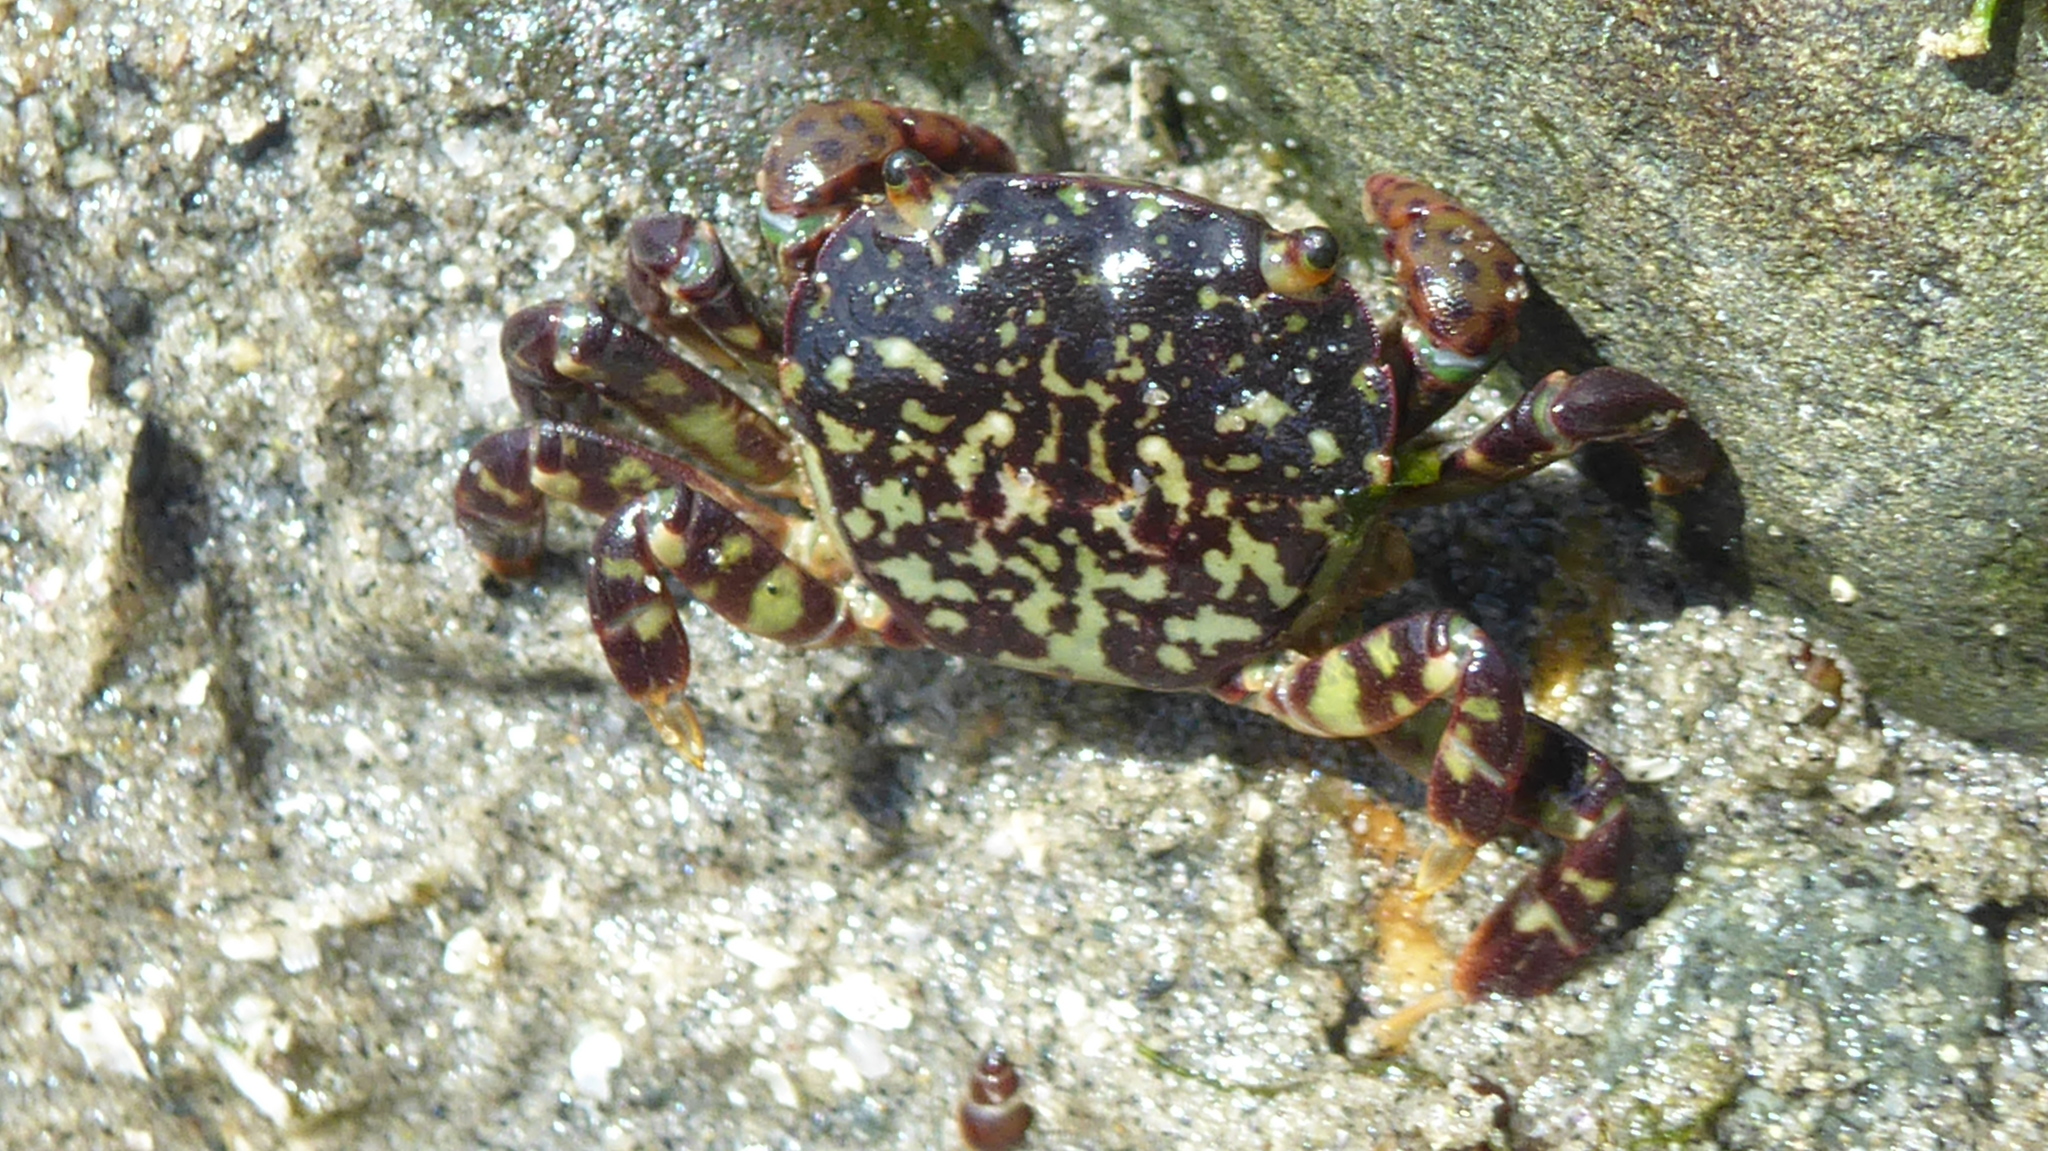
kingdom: Animalia
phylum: Arthropoda
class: Malacostraca
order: Decapoda
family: Varunidae
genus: Hemigrapsus
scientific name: Hemigrapsus nudus
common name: Purple shore crab
